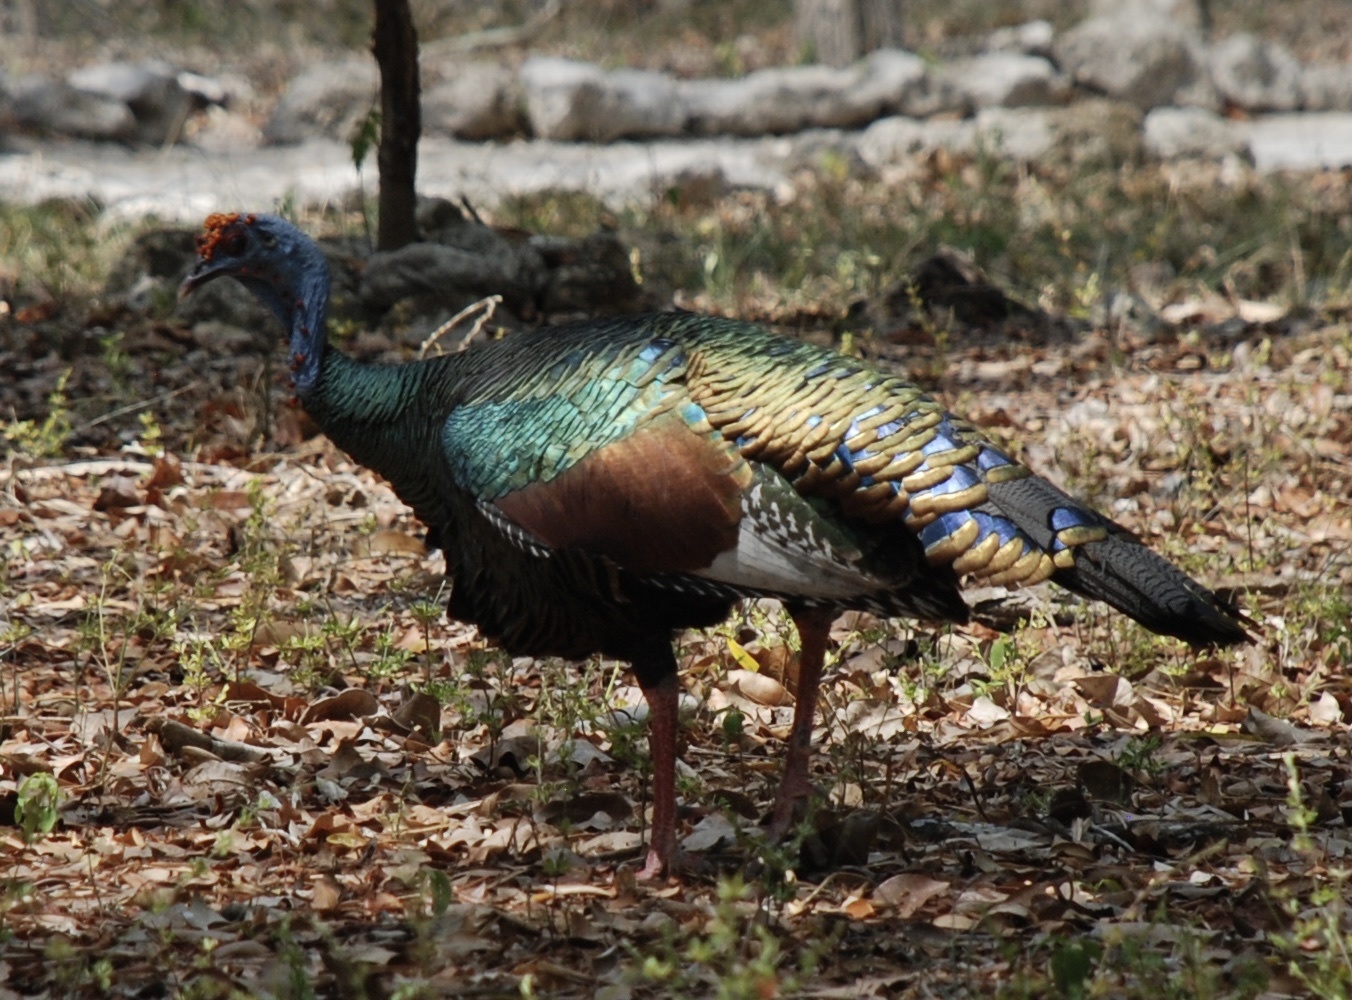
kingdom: Animalia
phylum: Chordata
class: Aves
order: Galliformes
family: Phasianidae
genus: Meleagris
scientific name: Meleagris ocellata
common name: Ocellated turkey
